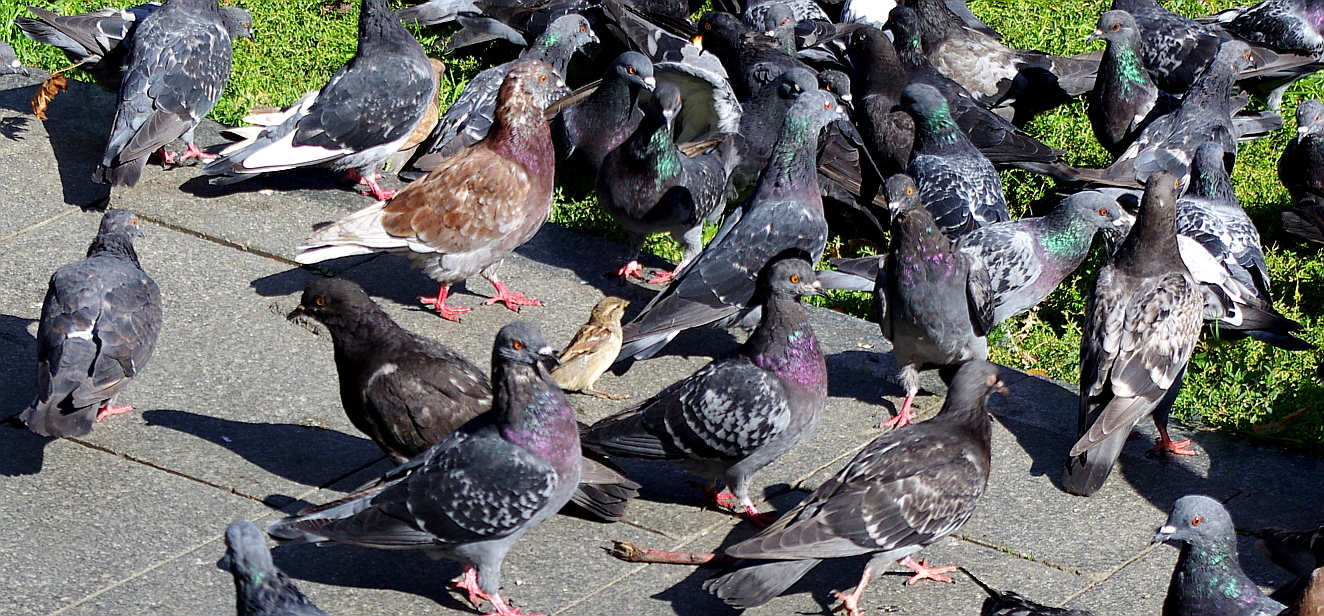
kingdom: Animalia
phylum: Chordata
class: Aves
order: Columbiformes
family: Columbidae
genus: Columba
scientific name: Columba livia
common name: Rock pigeon
